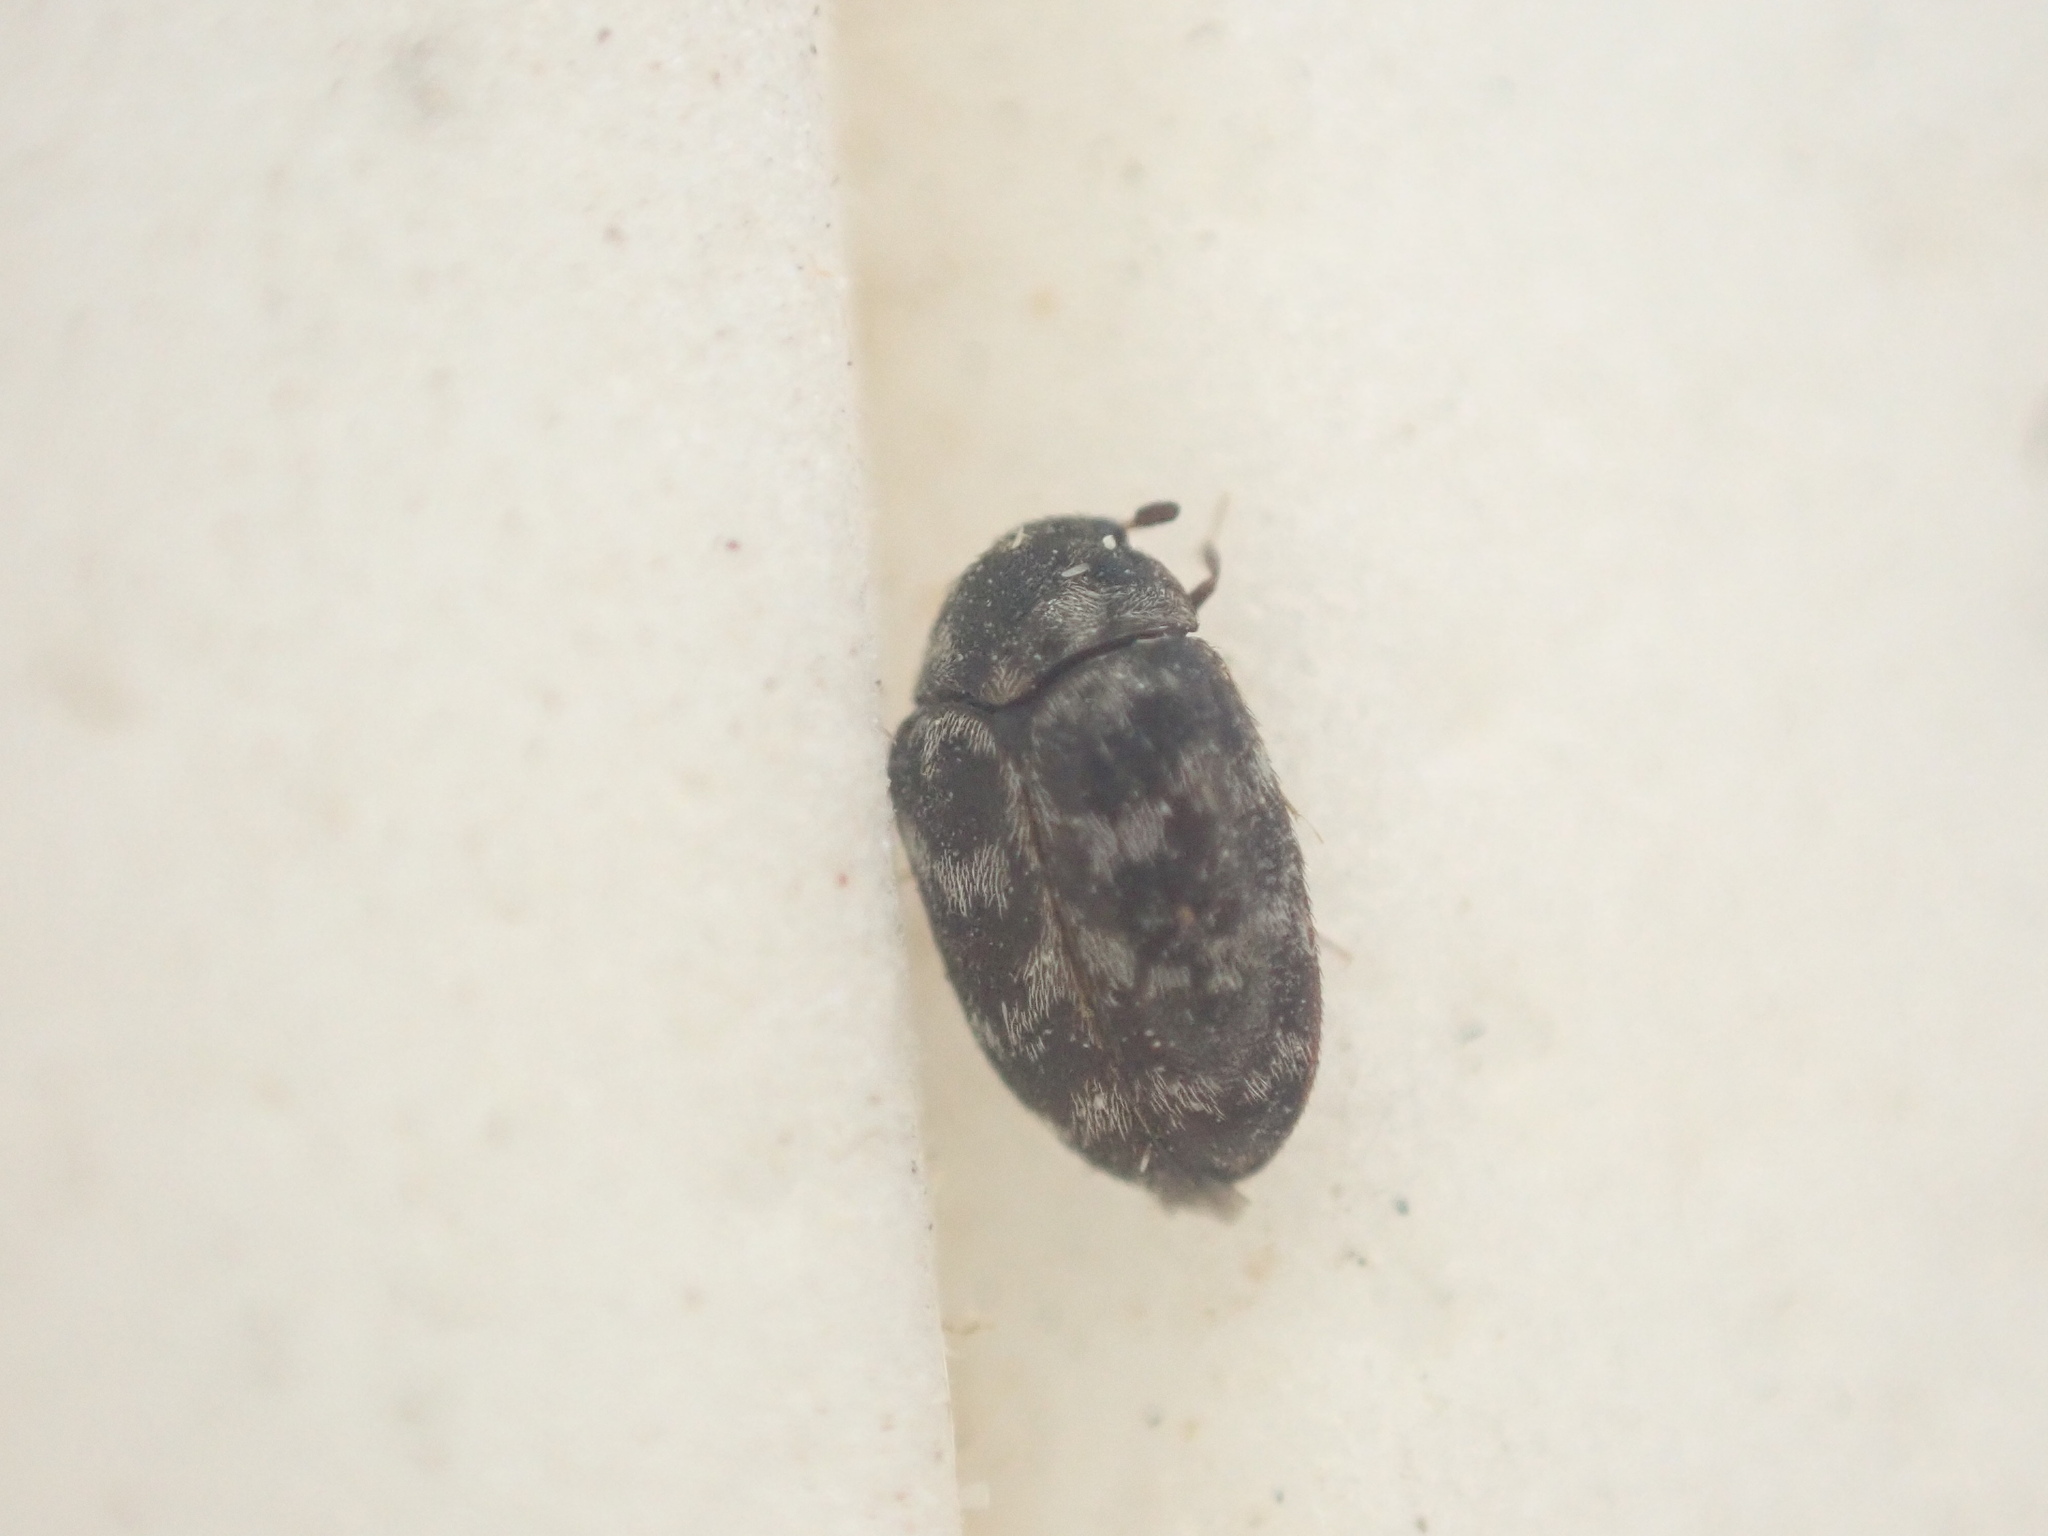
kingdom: Animalia
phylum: Arthropoda
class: Insecta
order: Coleoptera
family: Dermestidae
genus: Anthrenocerus
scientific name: Anthrenocerus australis
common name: Australian carpet beetle
